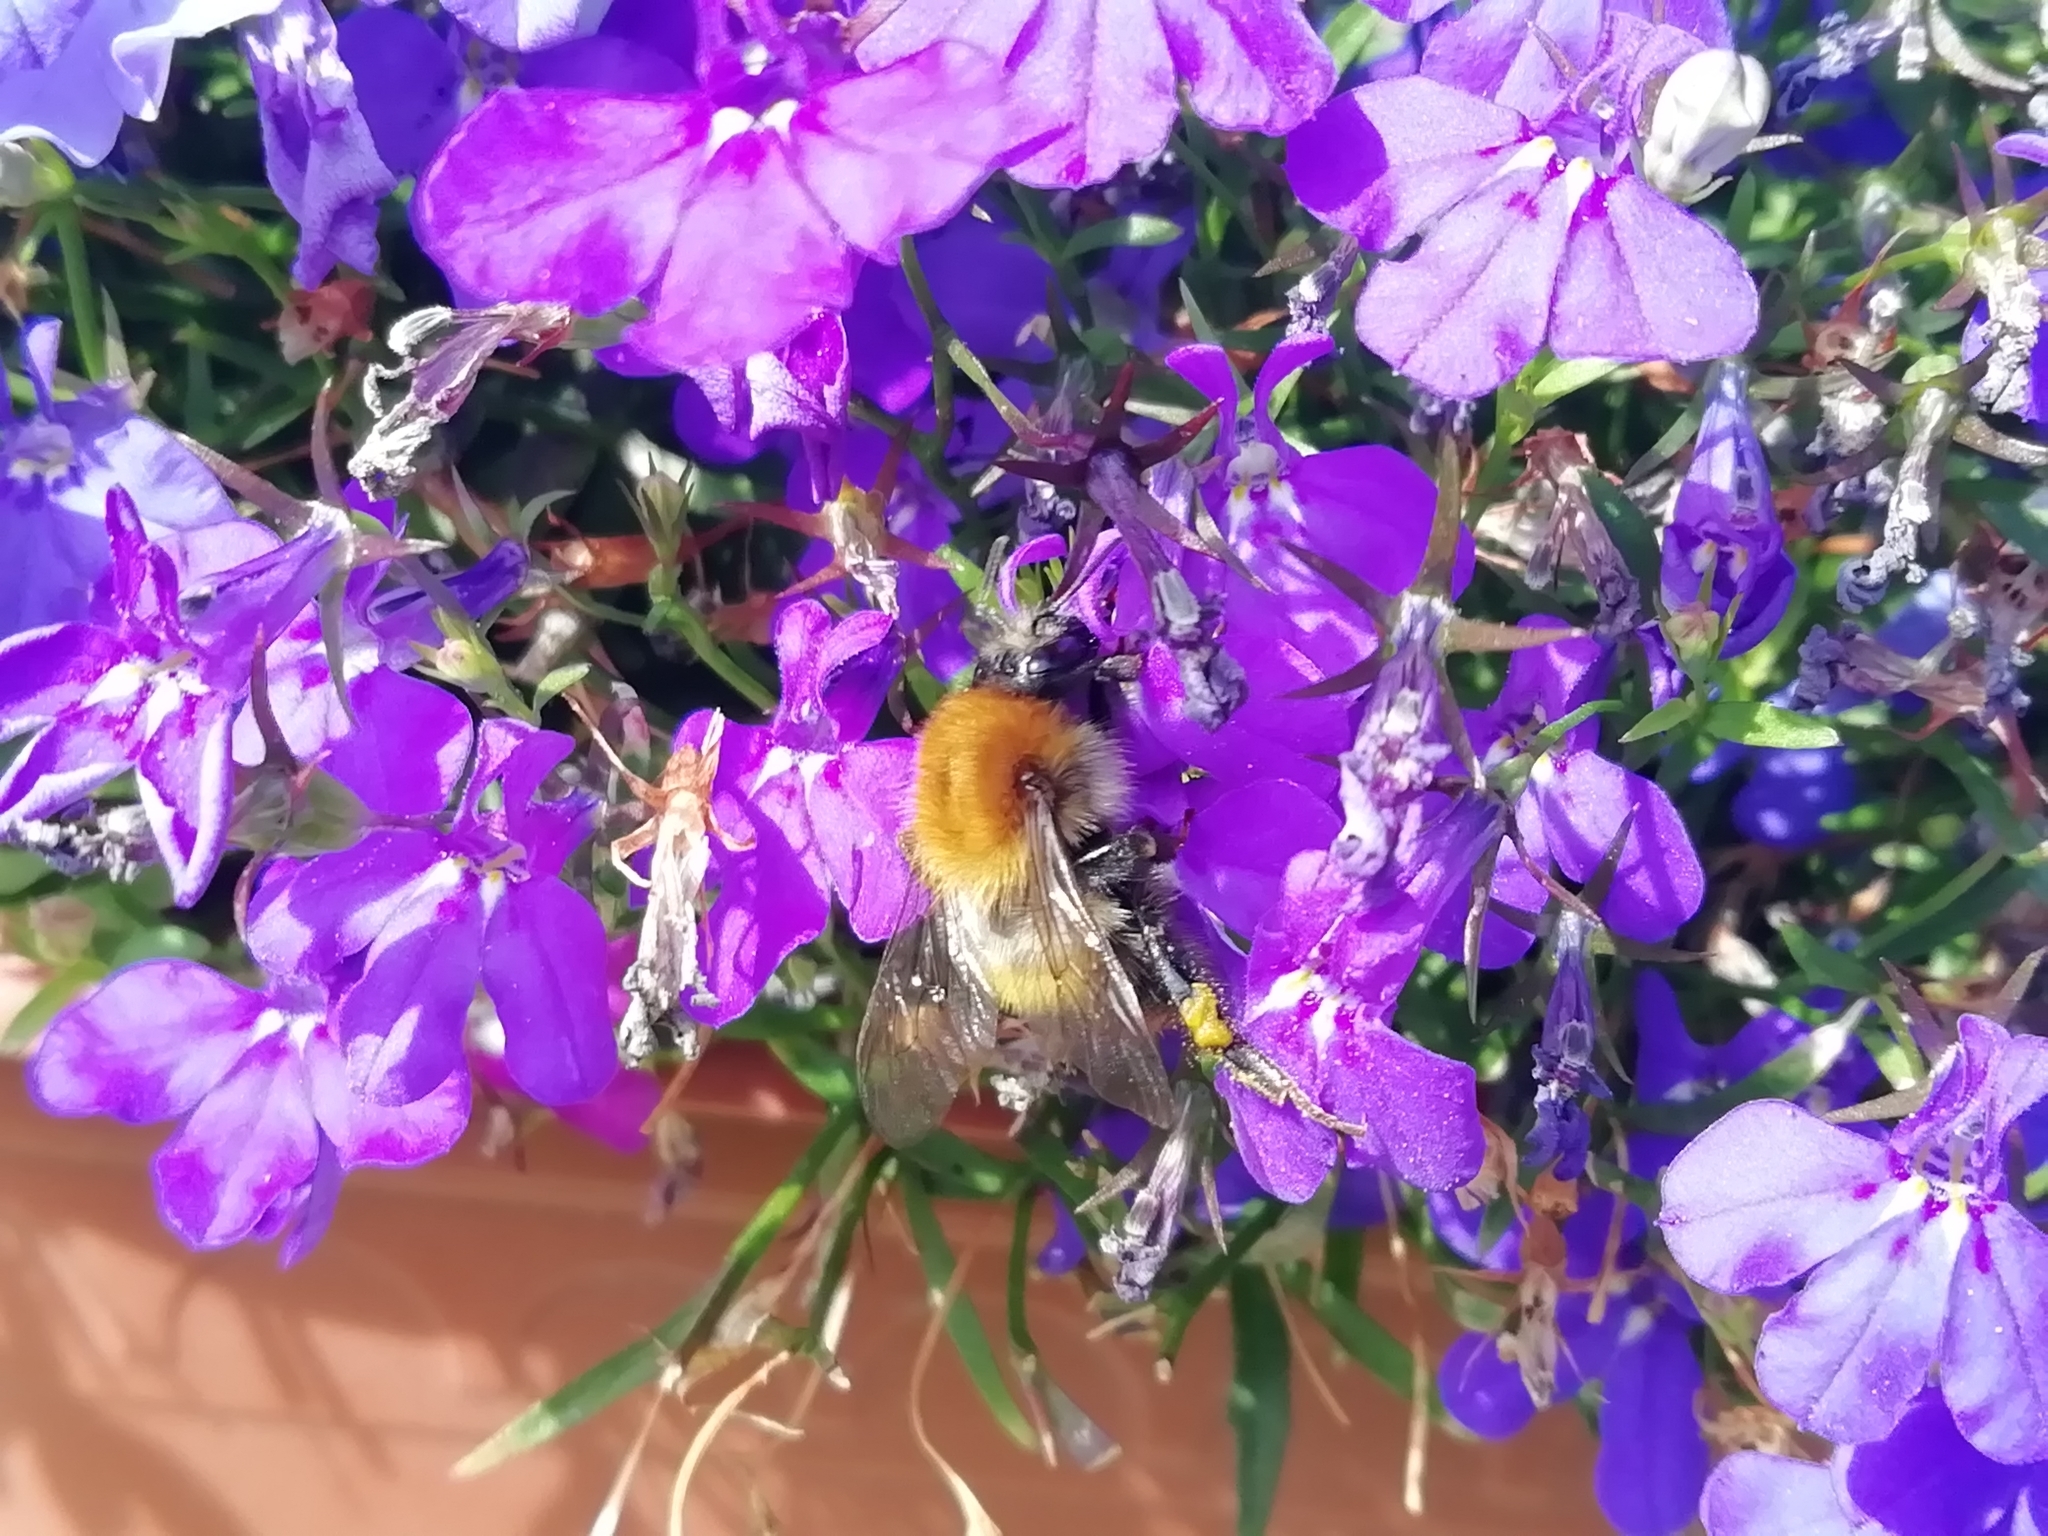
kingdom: Animalia
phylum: Arthropoda
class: Insecta
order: Hymenoptera
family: Apidae
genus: Bombus
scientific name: Bombus pascuorum
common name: Common carder bee
